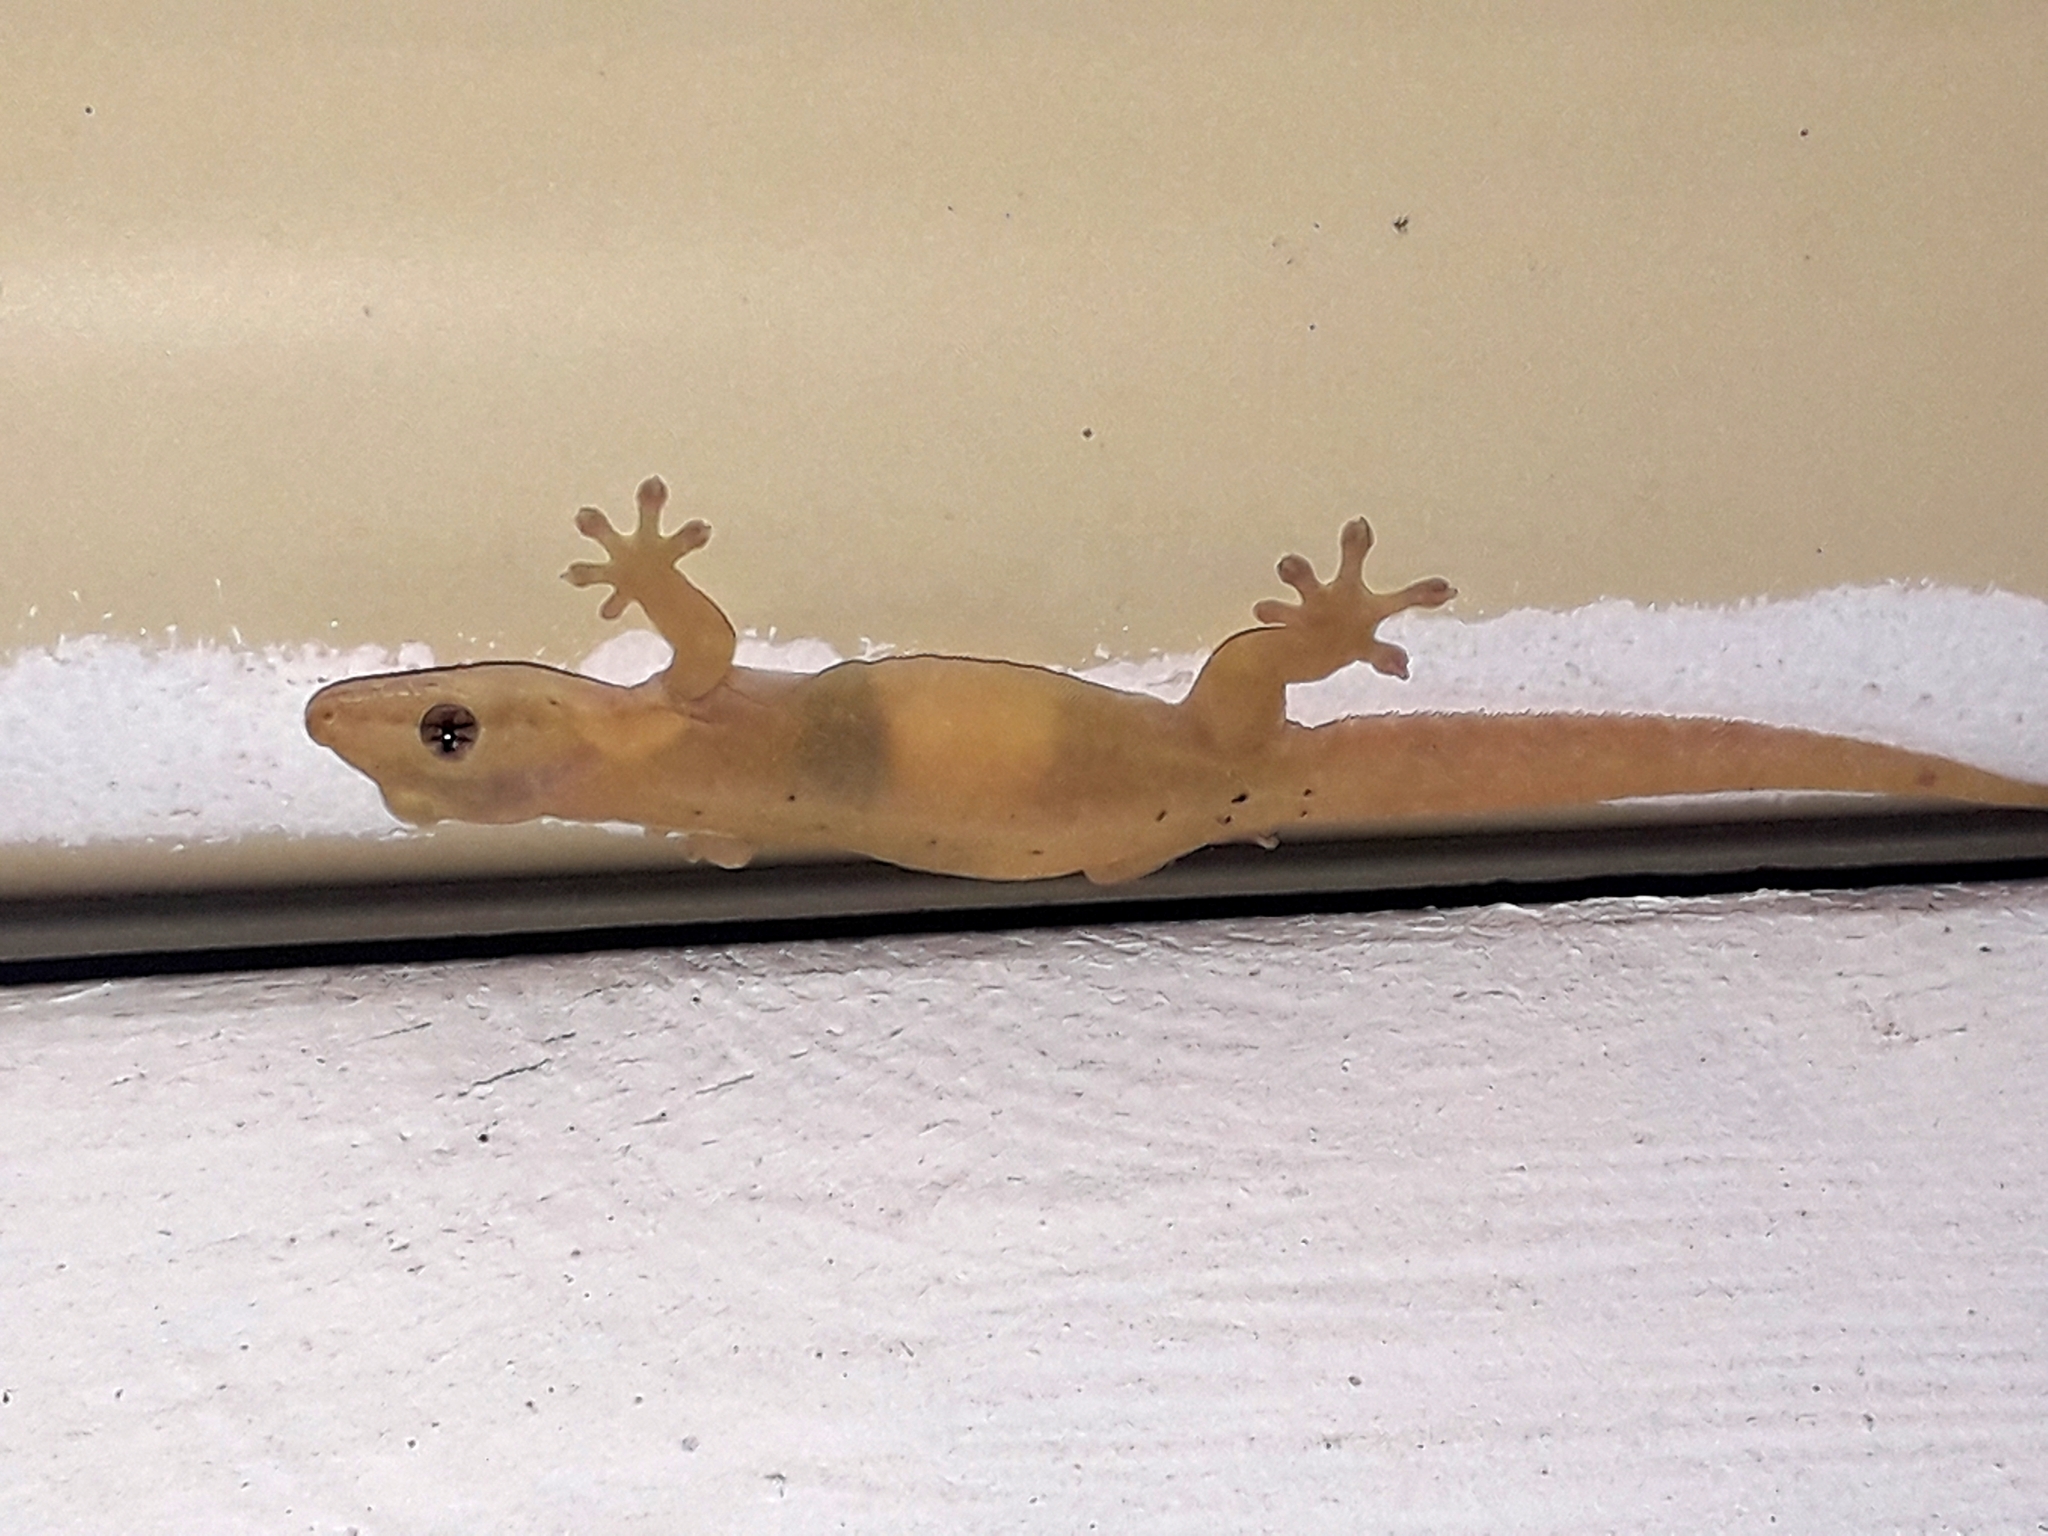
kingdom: Animalia
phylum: Chordata
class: Squamata
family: Gekkonidae
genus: Lepidodactylus
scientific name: Lepidodactylus lugubris
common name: Mourning gecko
